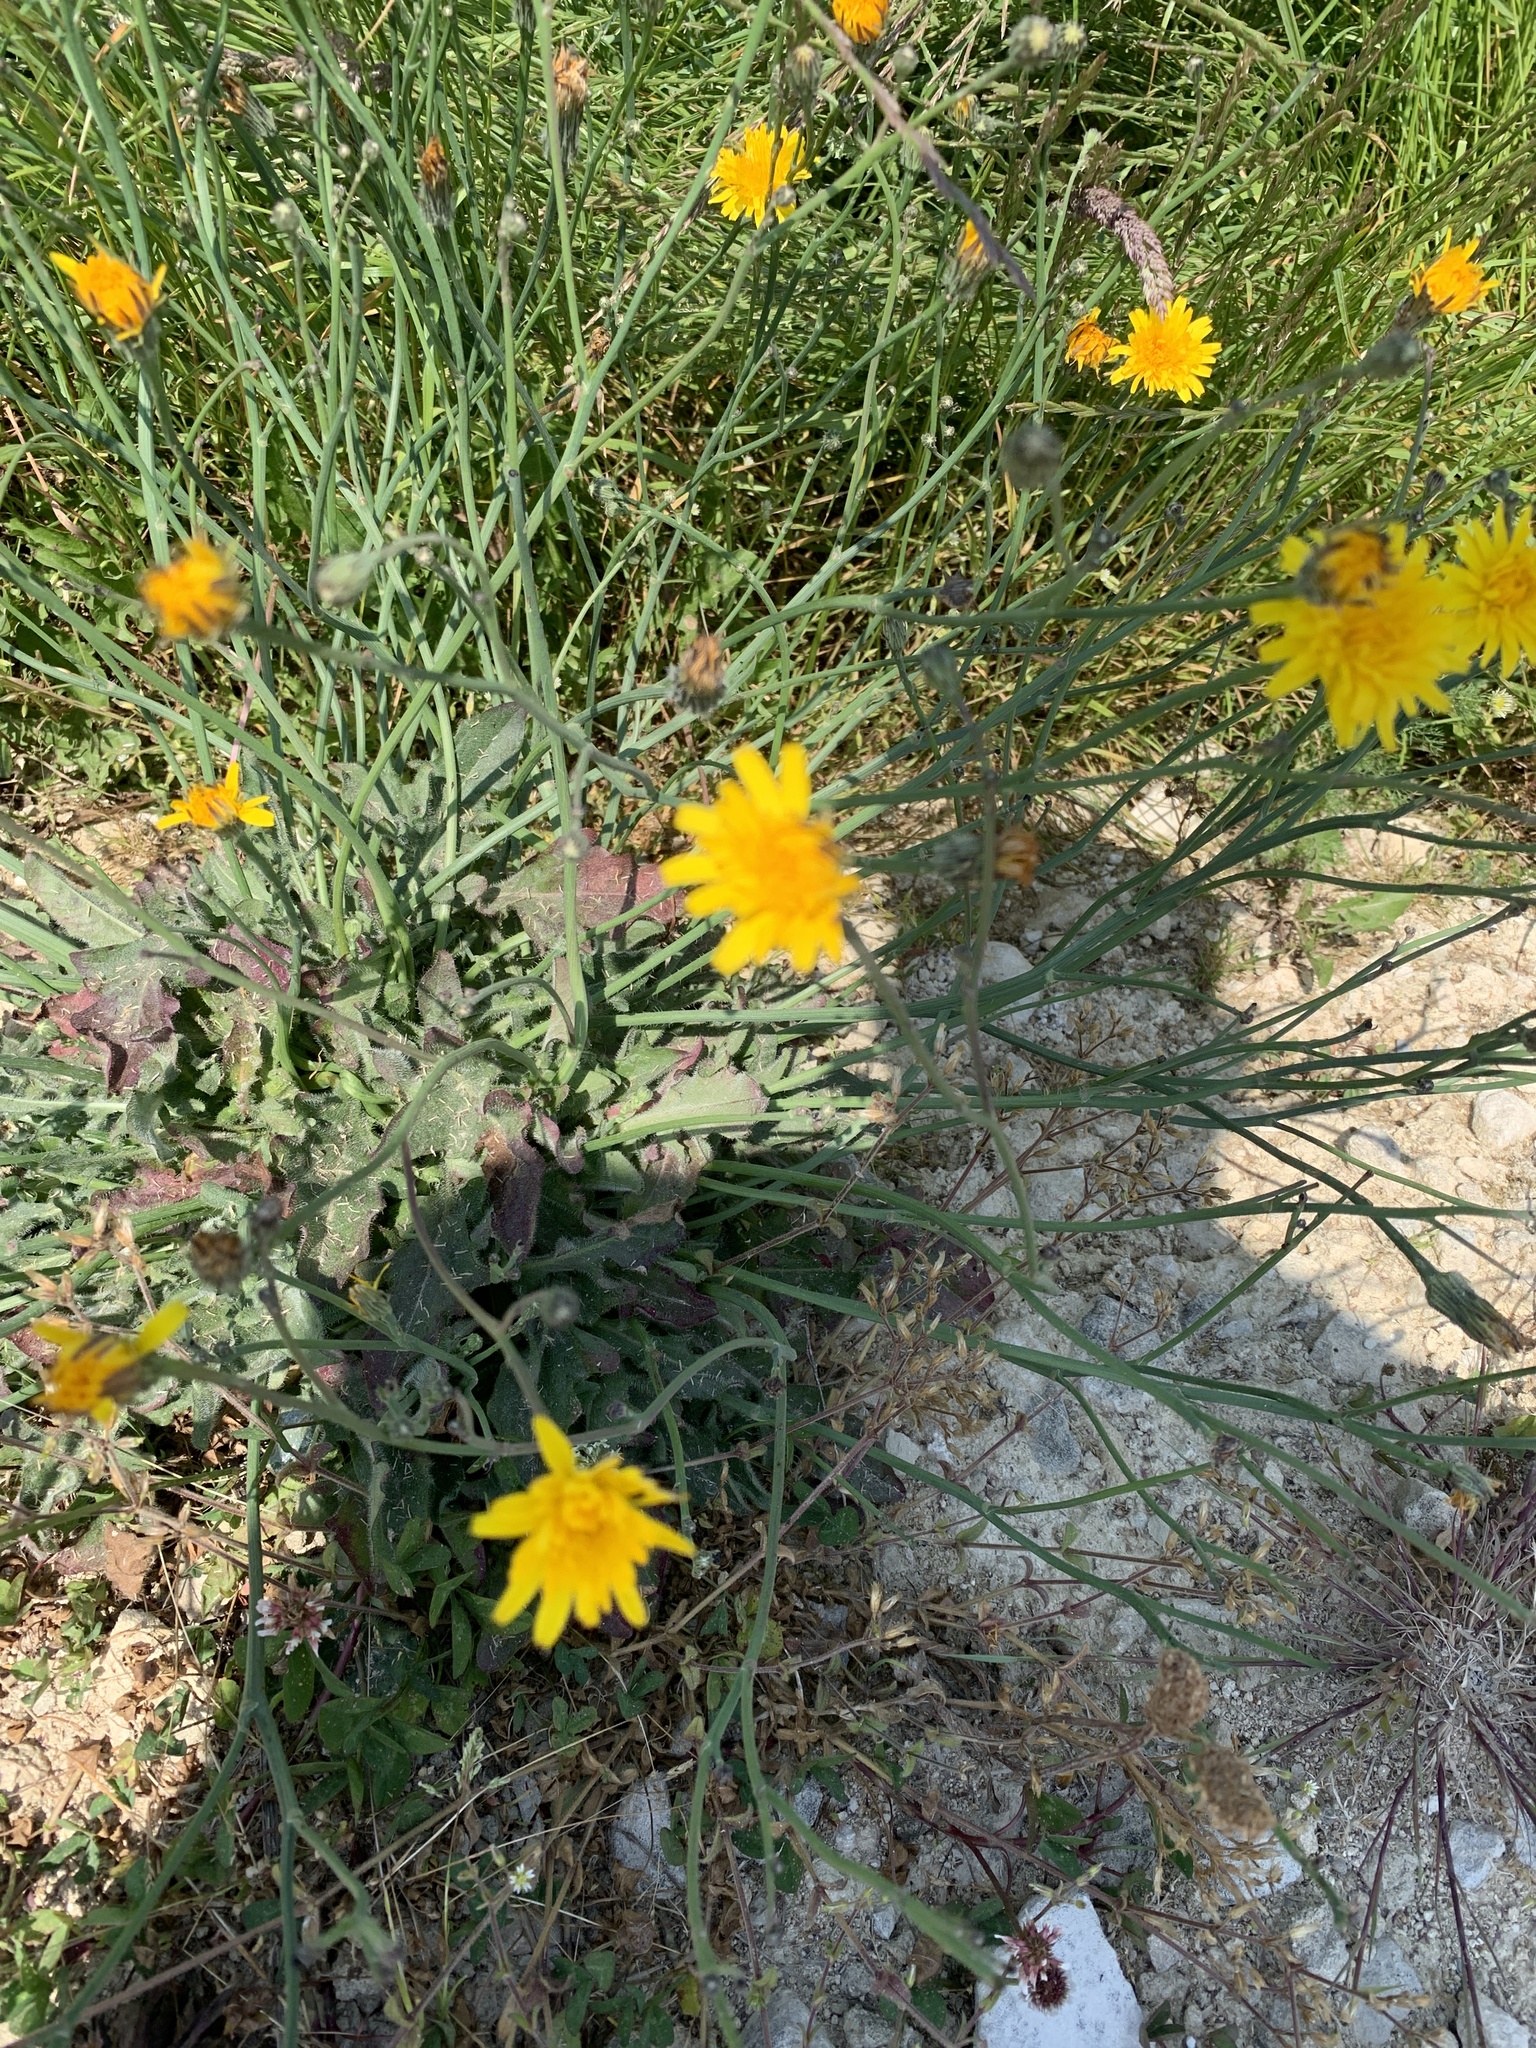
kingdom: Plantae
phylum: Tracheophyta
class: Magnoliopsida
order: Asterales
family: Asteraceae
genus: Hypochaeris
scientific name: Hypochaeris radicata
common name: Flatweed
